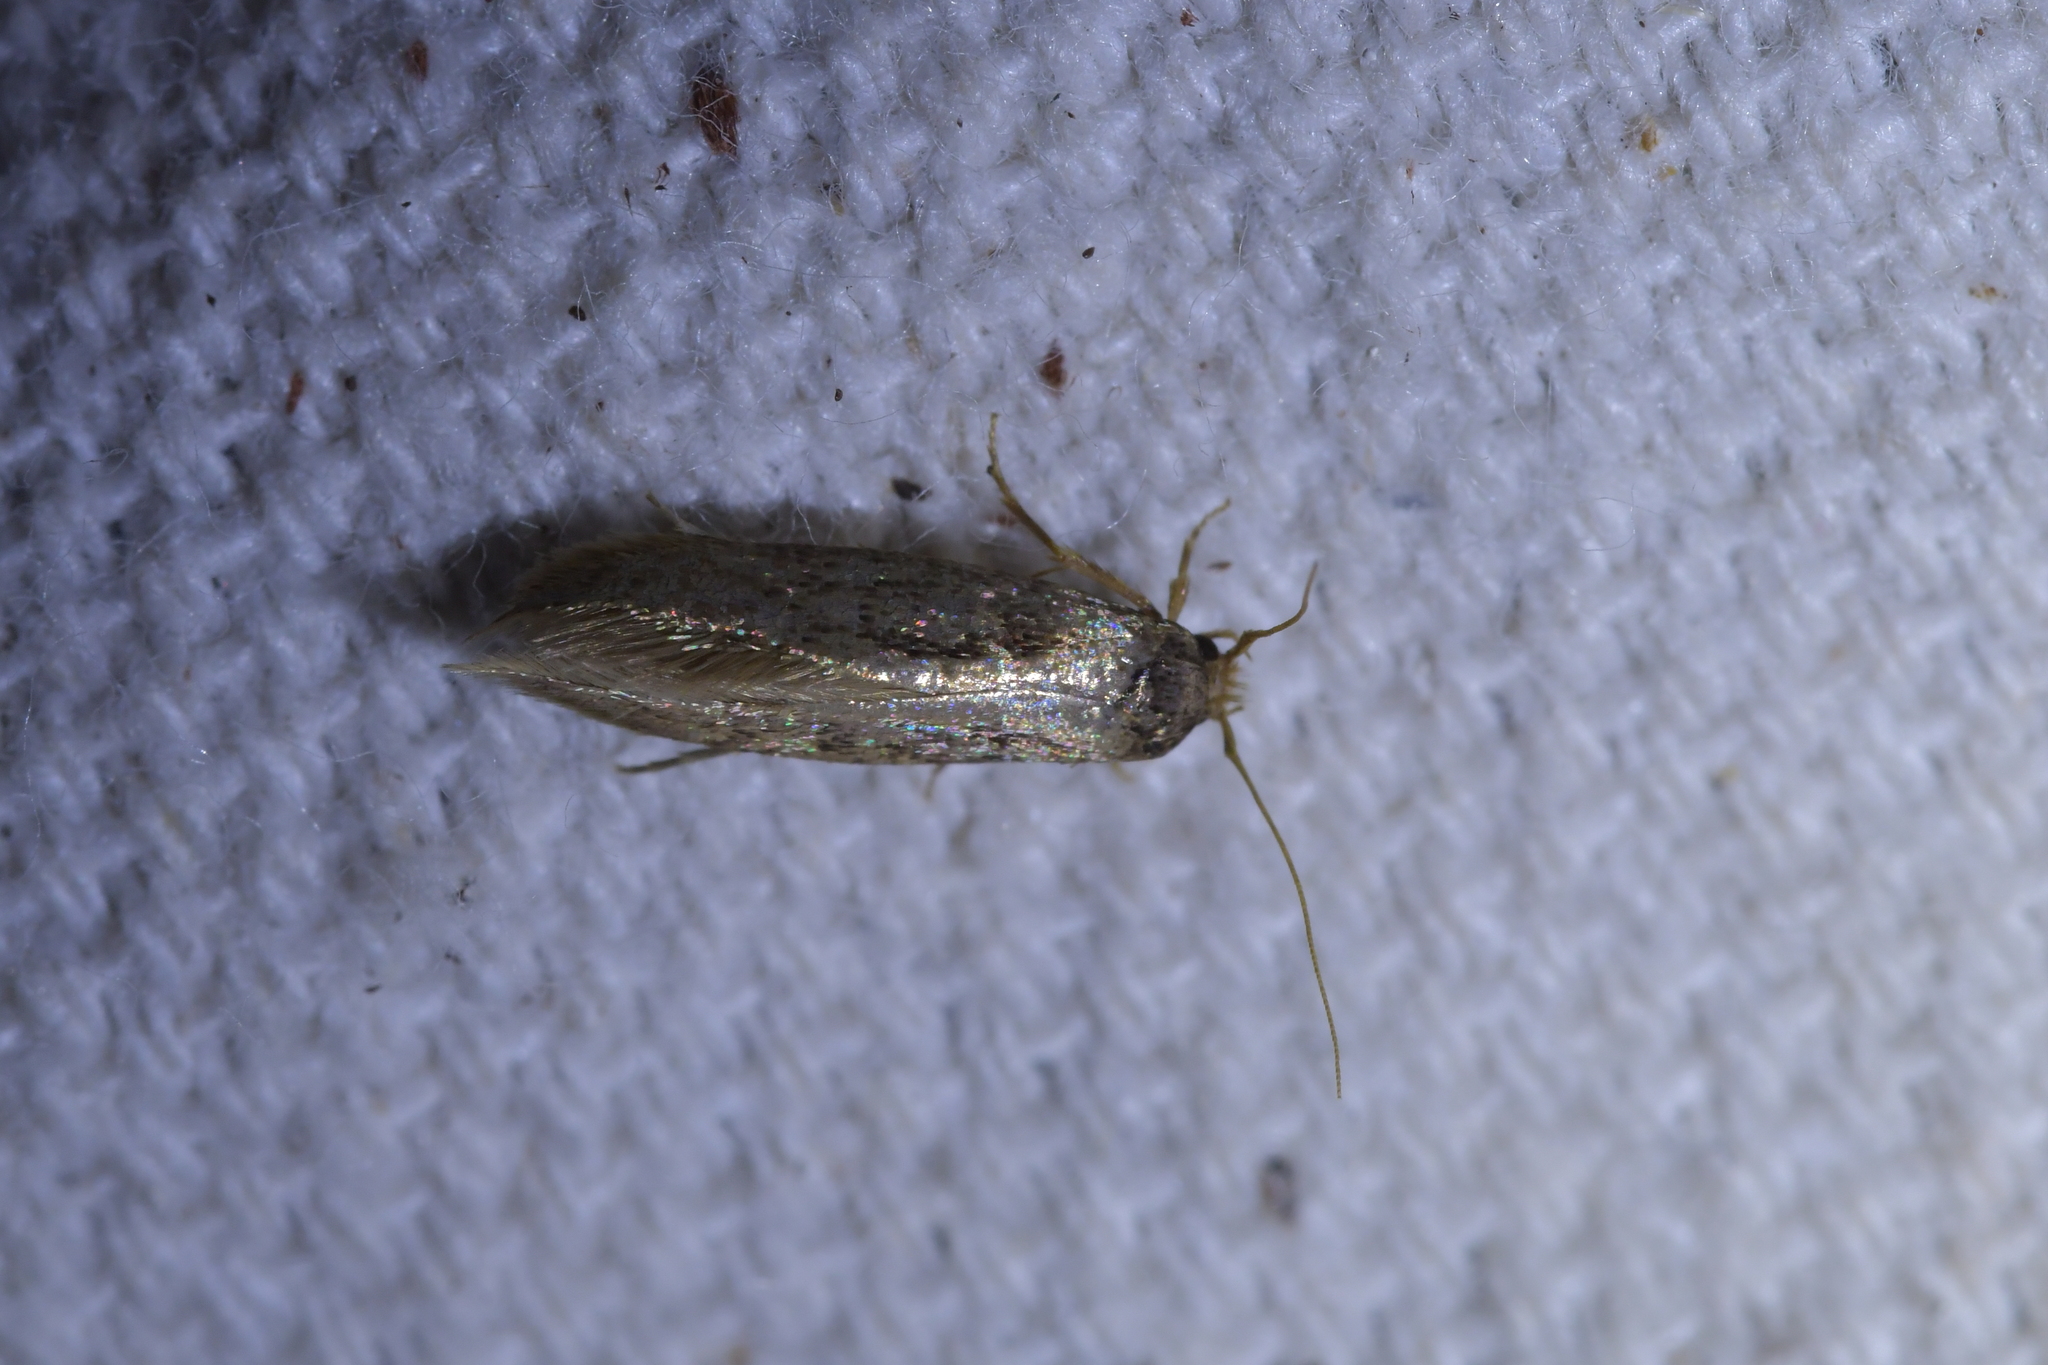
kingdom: Animalia
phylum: Arthropoda
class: Insecta
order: Lepidoptera
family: Tineidae
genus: Opogona
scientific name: Opogona omoscopa
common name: Moth
